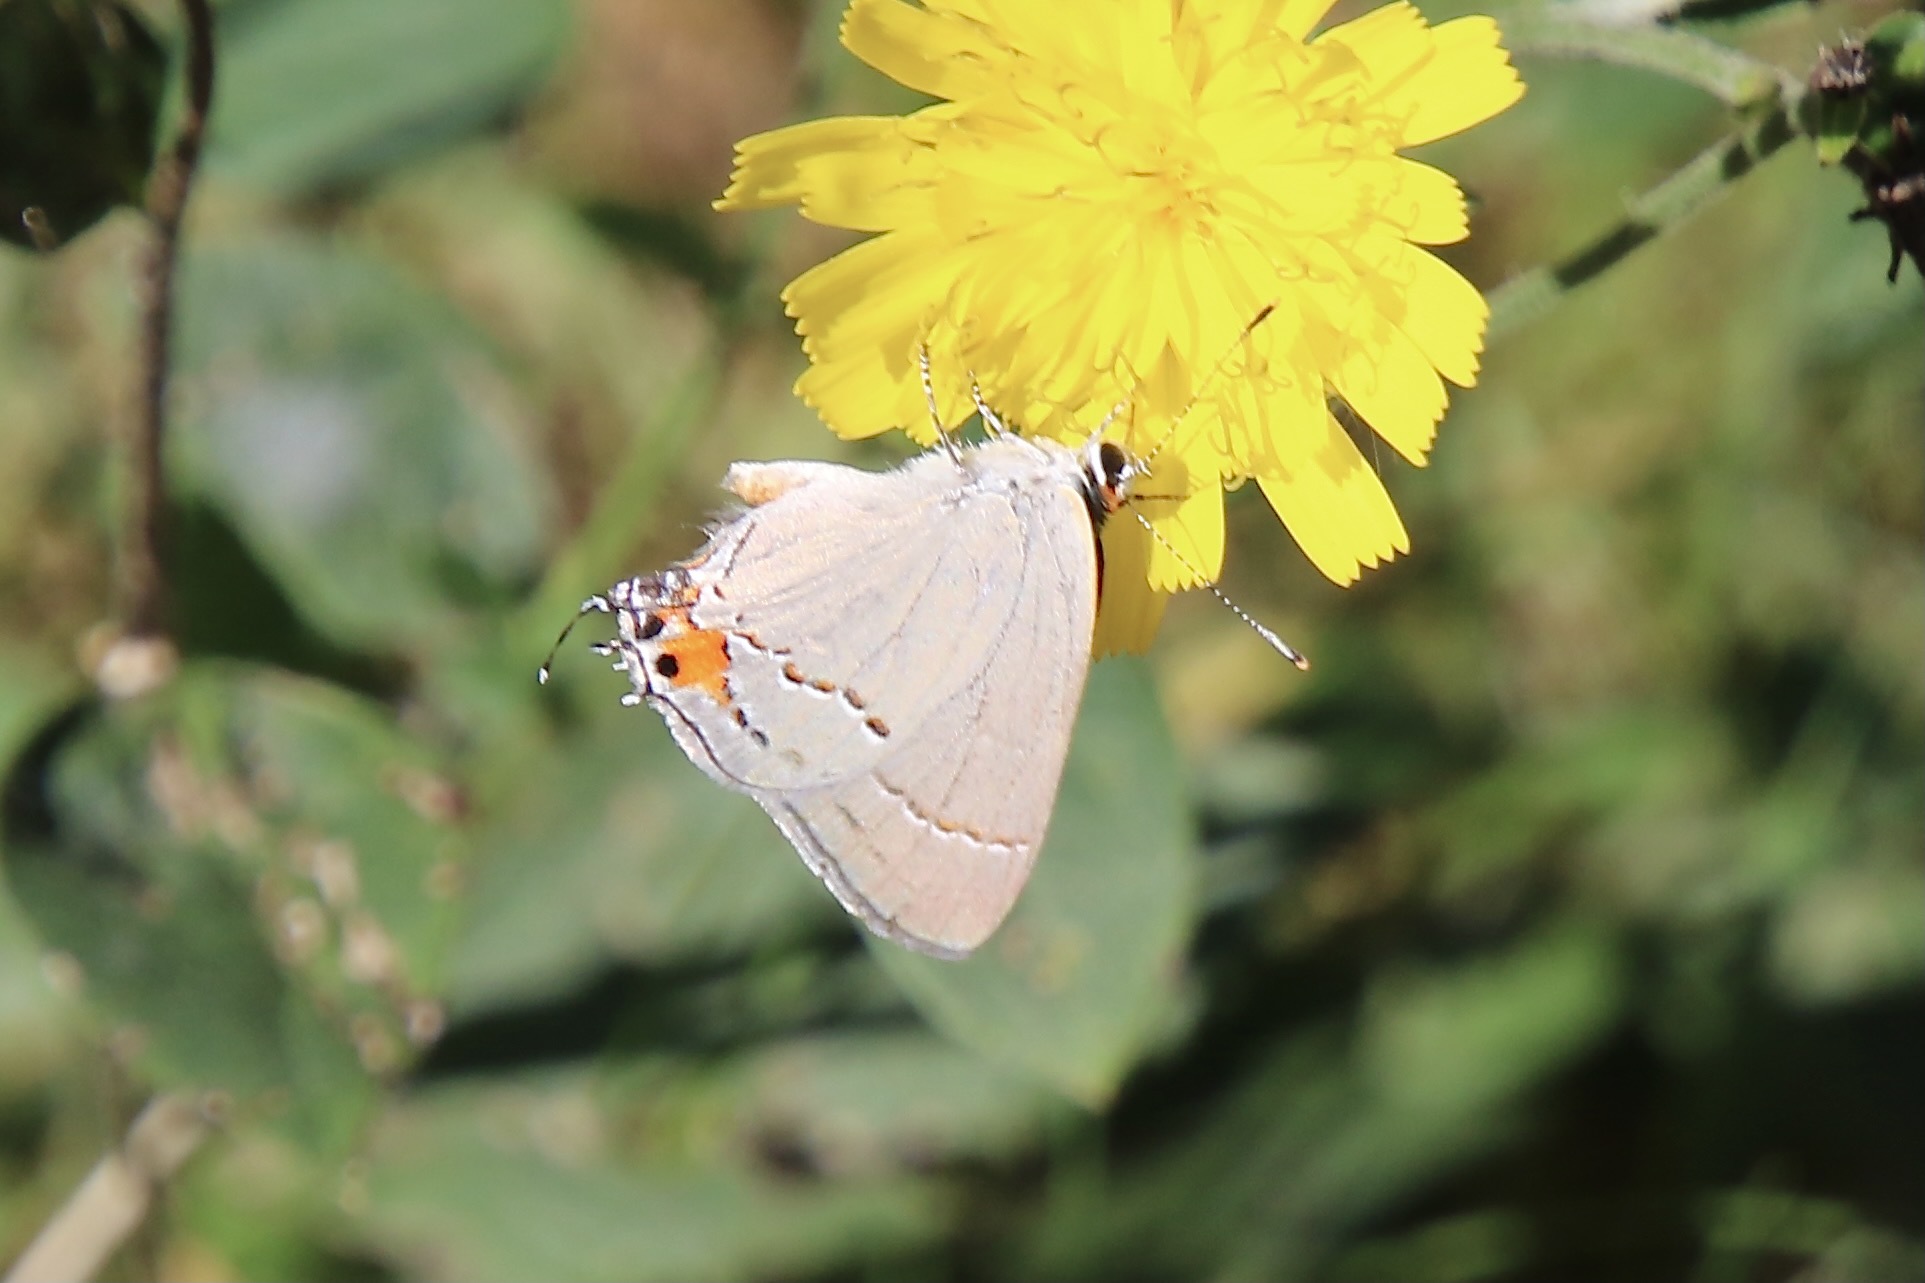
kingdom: Animalia
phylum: Arthropoda
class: Insecta
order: Lepidoptera
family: Lycaenidae
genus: Strymon
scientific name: Strymon melinus
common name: Gray hairstreak
